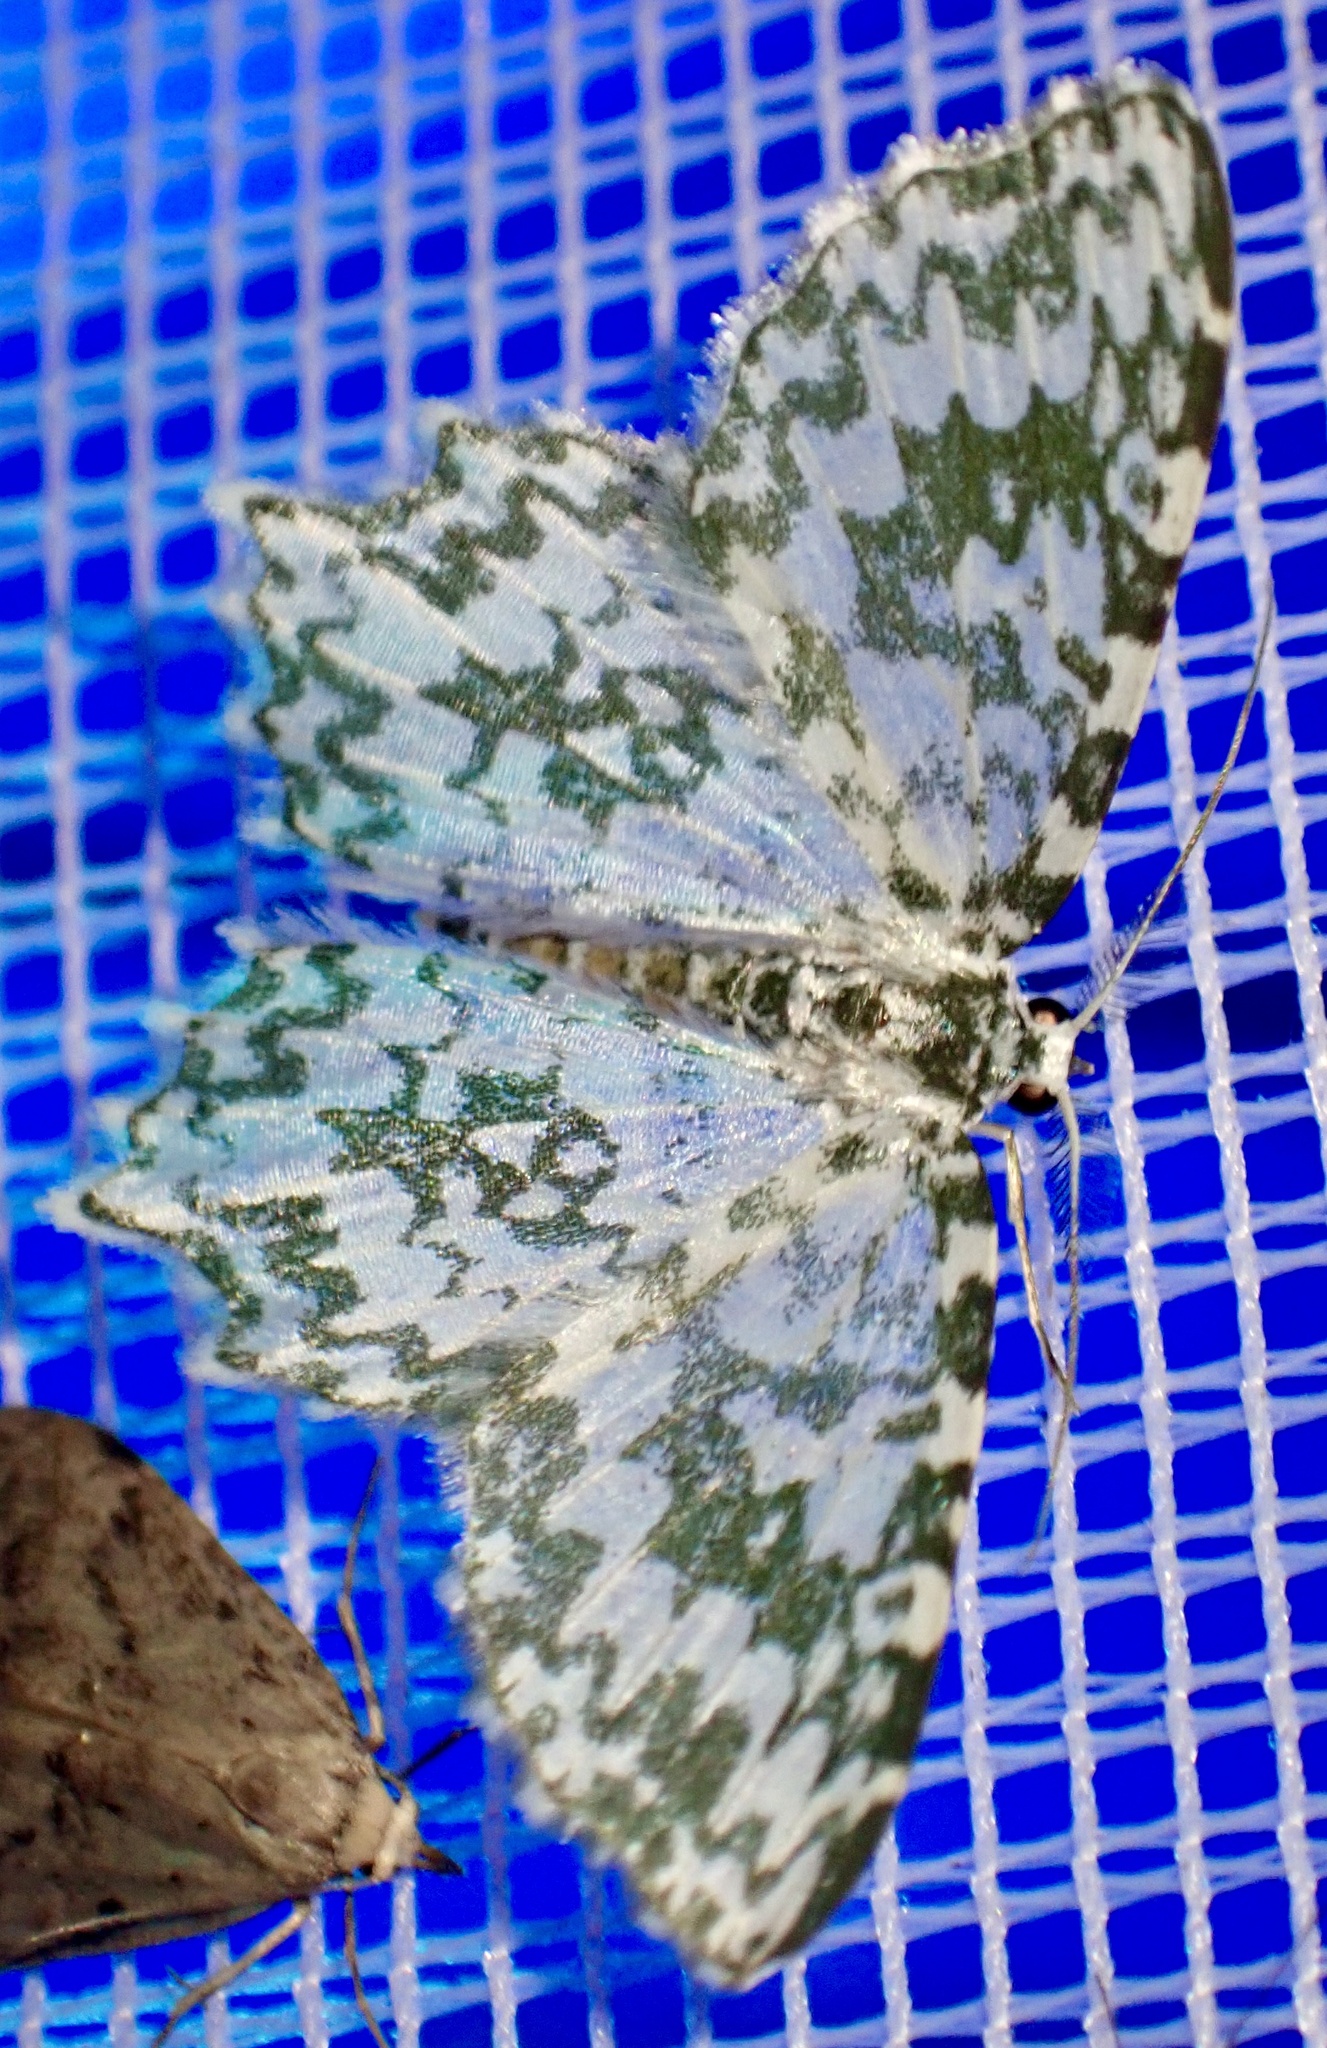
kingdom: Animalia
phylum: Arthropoda
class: Insecta
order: Lepidoptera
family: Geometridae
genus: Berta
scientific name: Berta arfakensis
